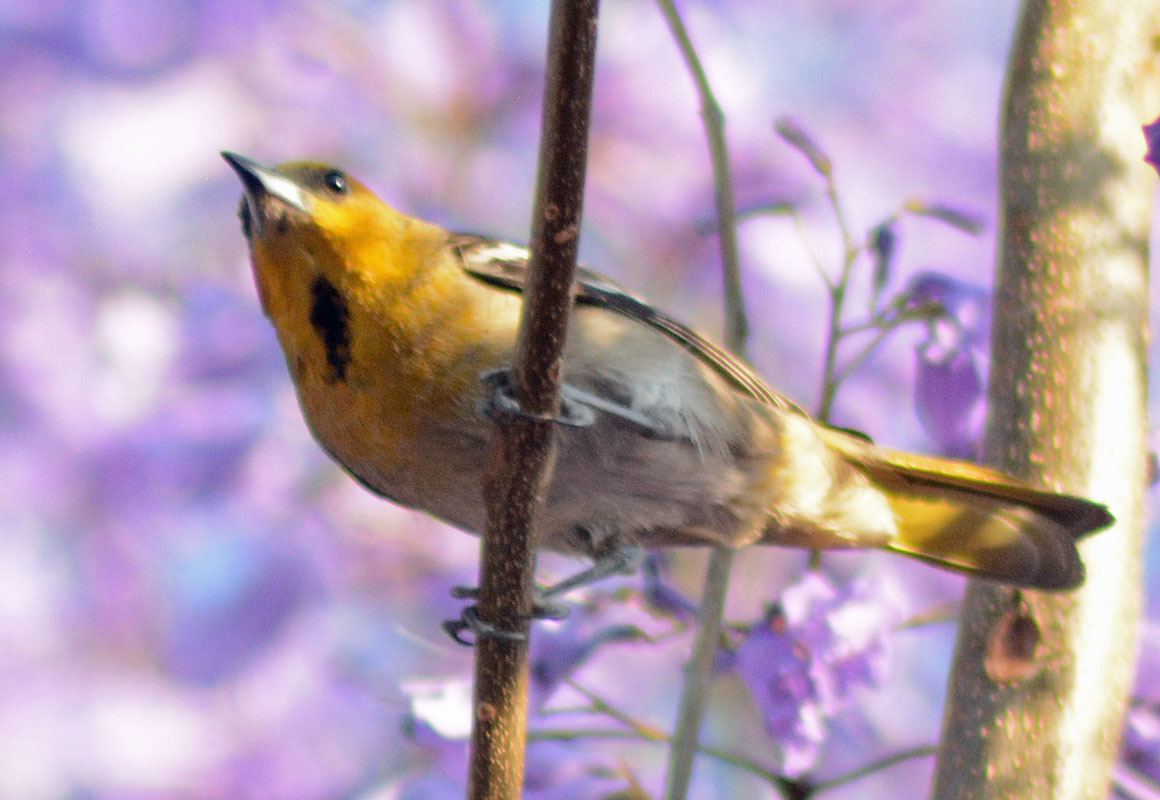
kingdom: Animalia
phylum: Chordata
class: Aves
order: Passeriformes
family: Icteridae
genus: Icterus
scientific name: Icterus abeillei
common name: Black-backed oriole
